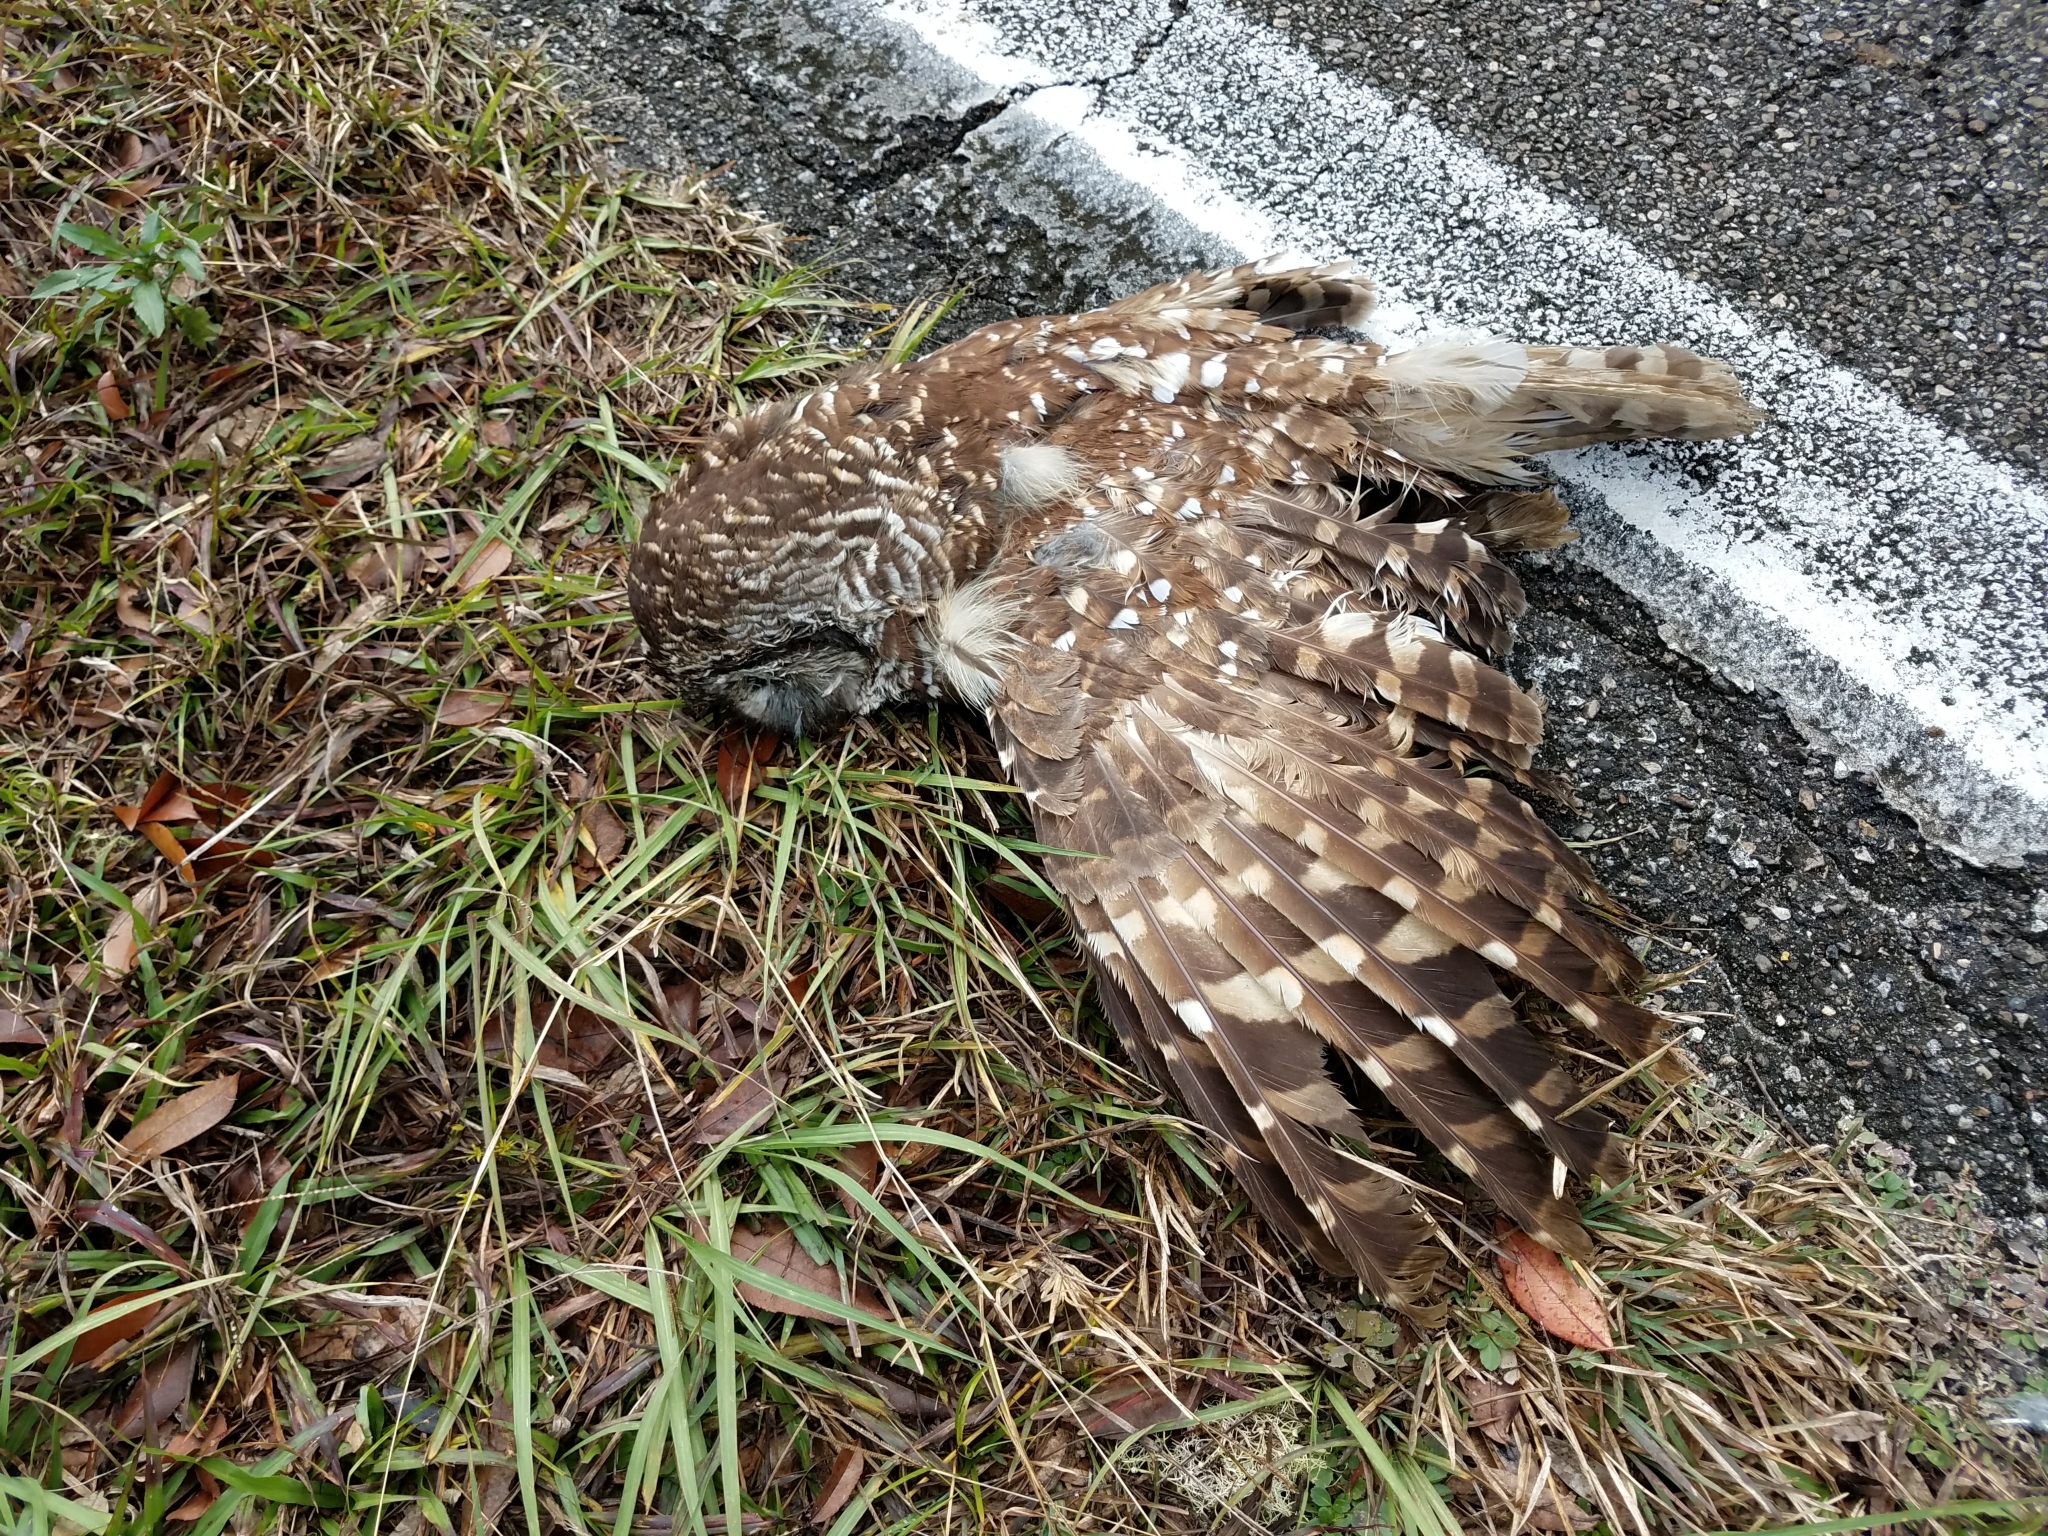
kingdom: Animalia
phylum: Chordata
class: Aves
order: Strigiformes
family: Strigidae
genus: Strix
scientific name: Strix varia
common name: Barred owl
